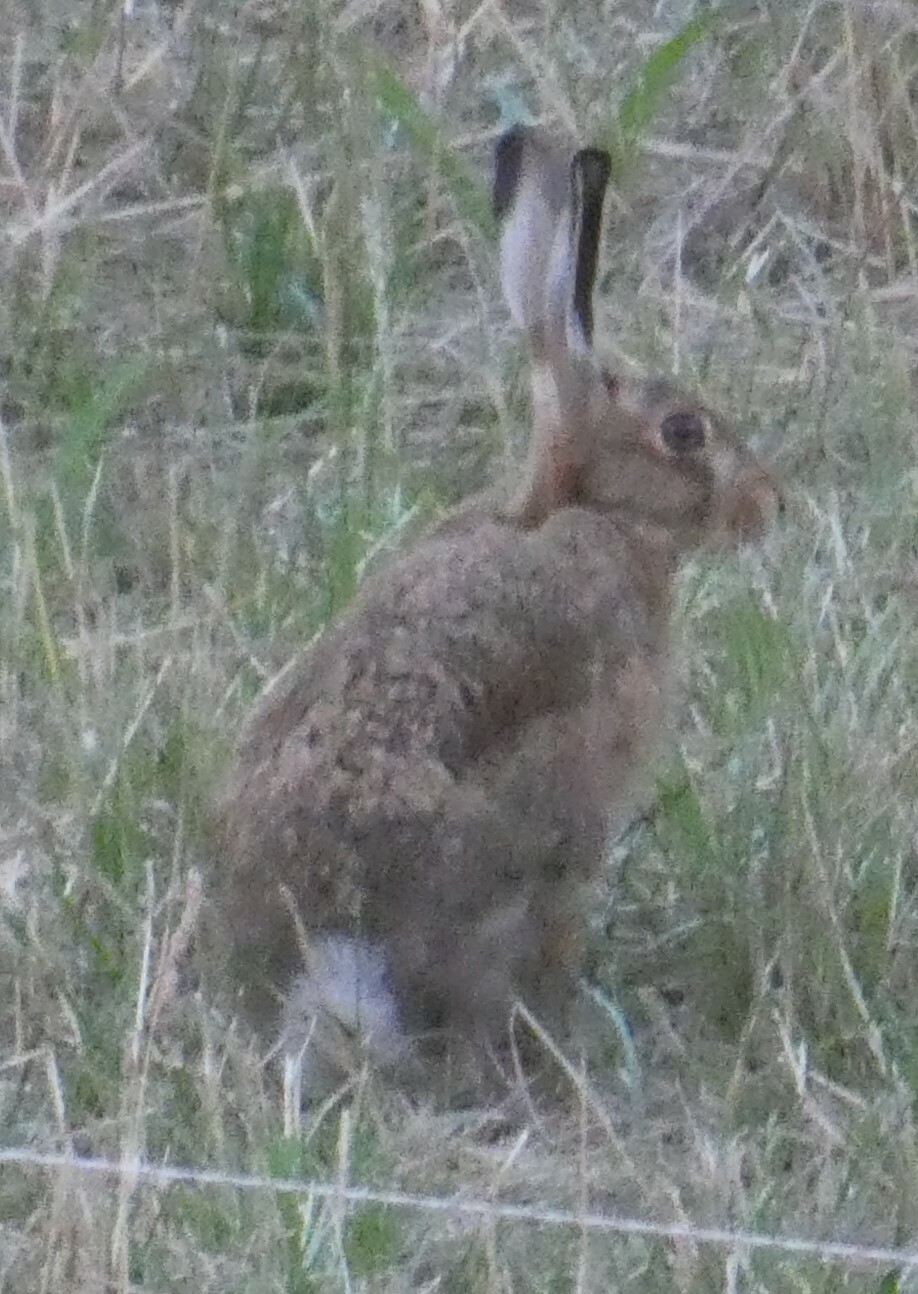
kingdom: Animalia
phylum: Chordata
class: Mammalia
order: Lagomorpha
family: Leporidae
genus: Lepus
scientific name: Lepus europaeus
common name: European hare
